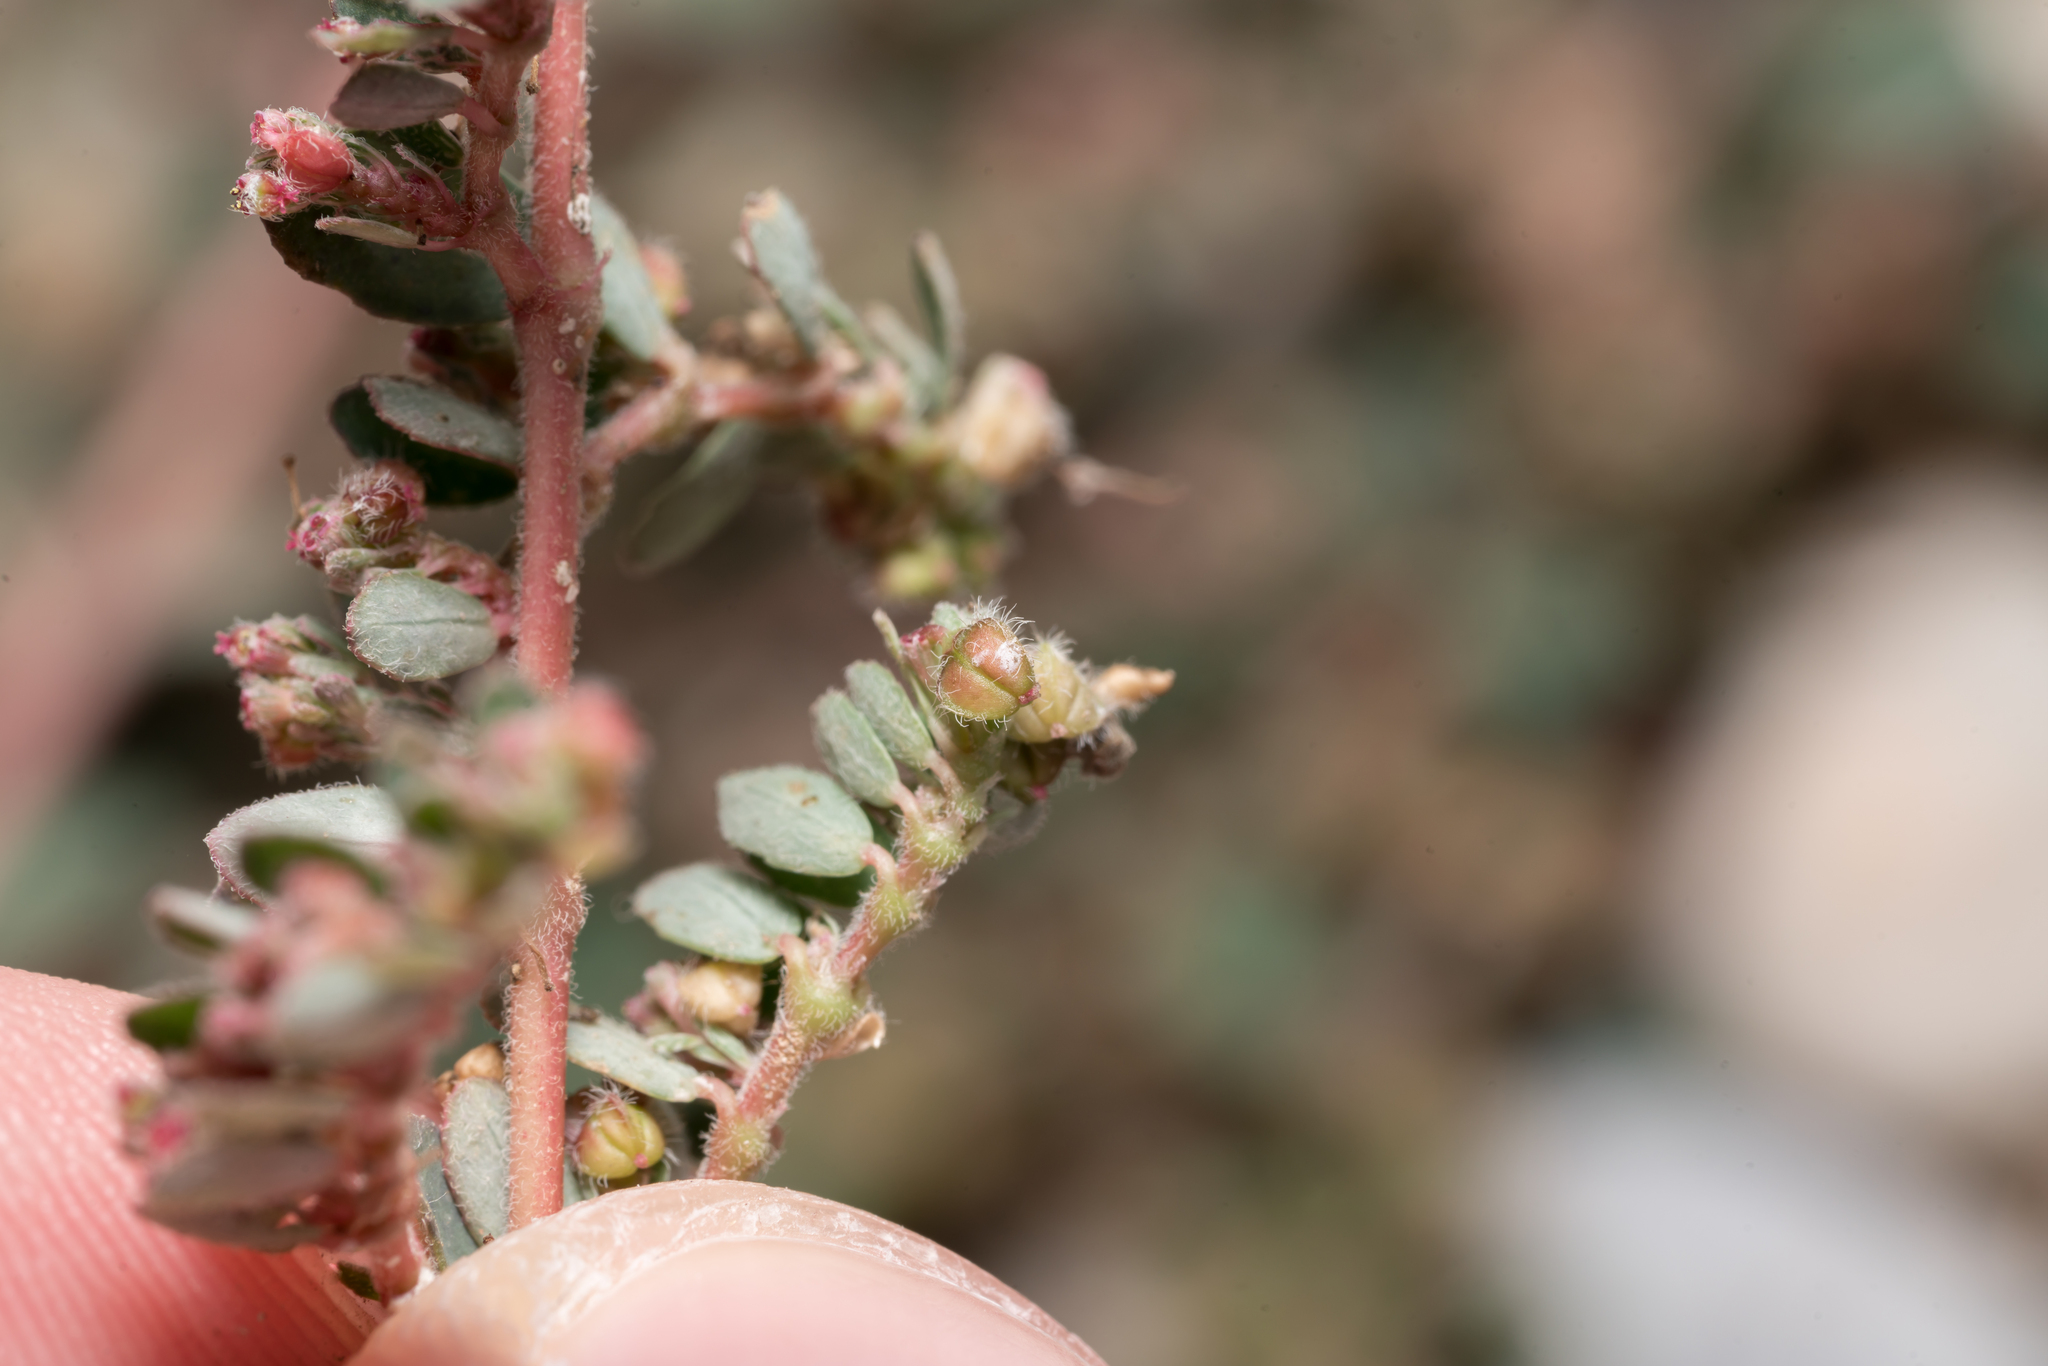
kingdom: Plantae
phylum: Tracheophyta
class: Magnoliopsida
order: Malpighiales
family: Euphorbiaceae
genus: Euphorbia
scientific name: Euphorbia prostrata
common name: Prostrate sandmat
